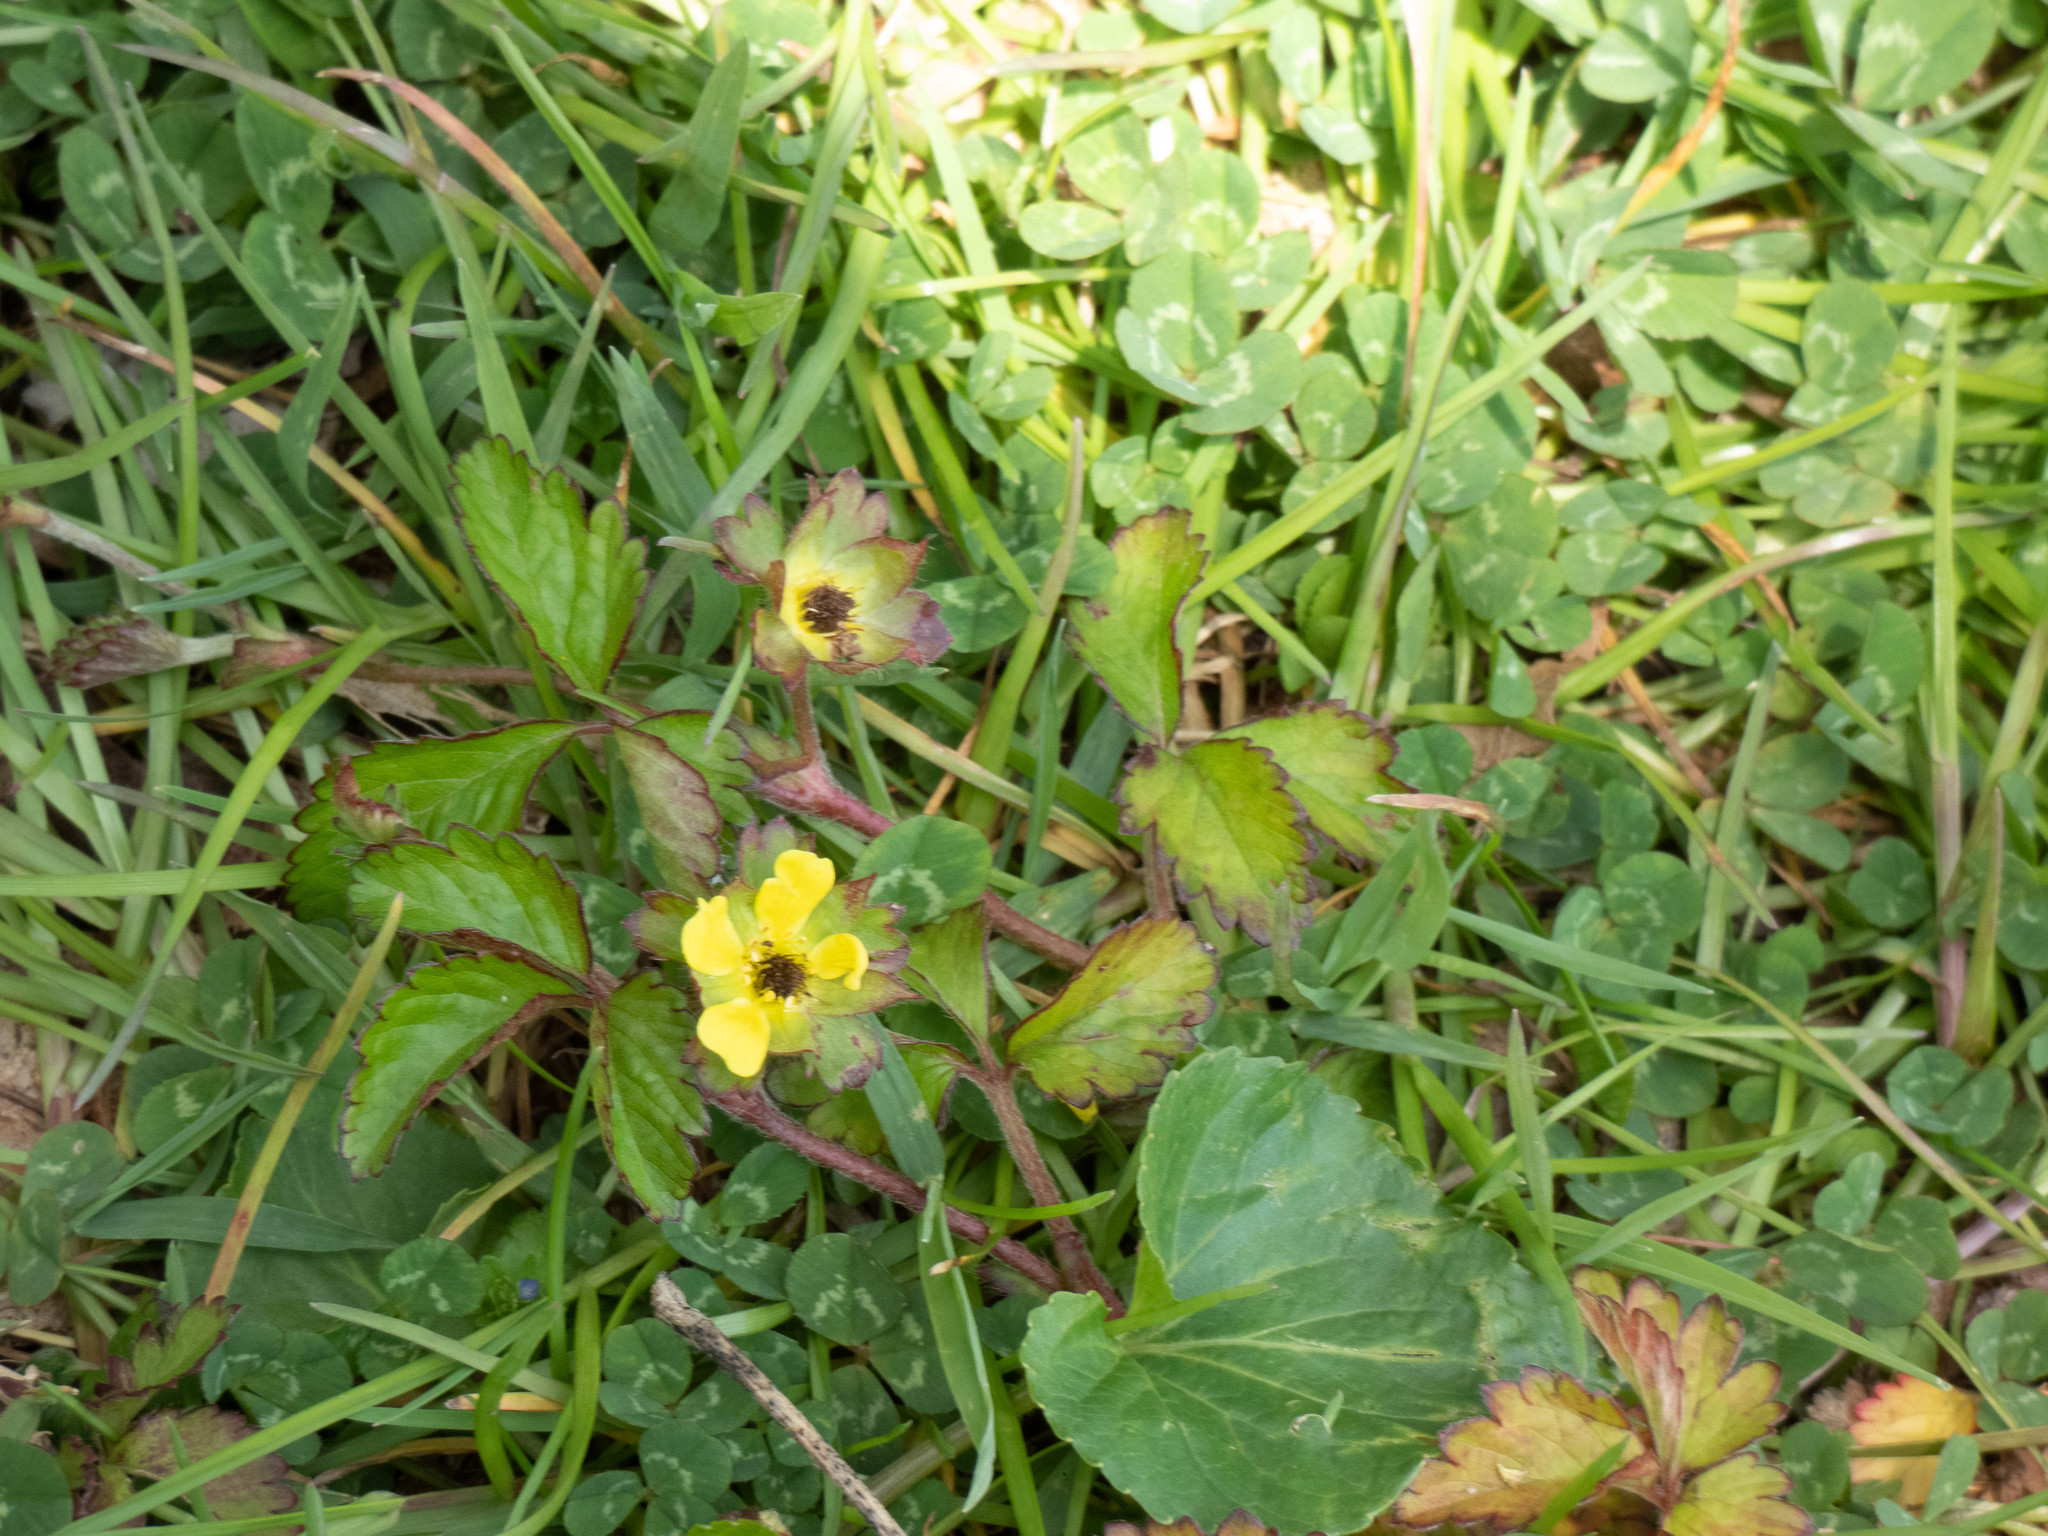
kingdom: Plantae
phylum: Tracheophyta
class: Magnoliopsida
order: Rosales
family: Rosaceae
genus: Potentilla
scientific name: Potentilla indica
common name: Yellow-flowered strawberry
